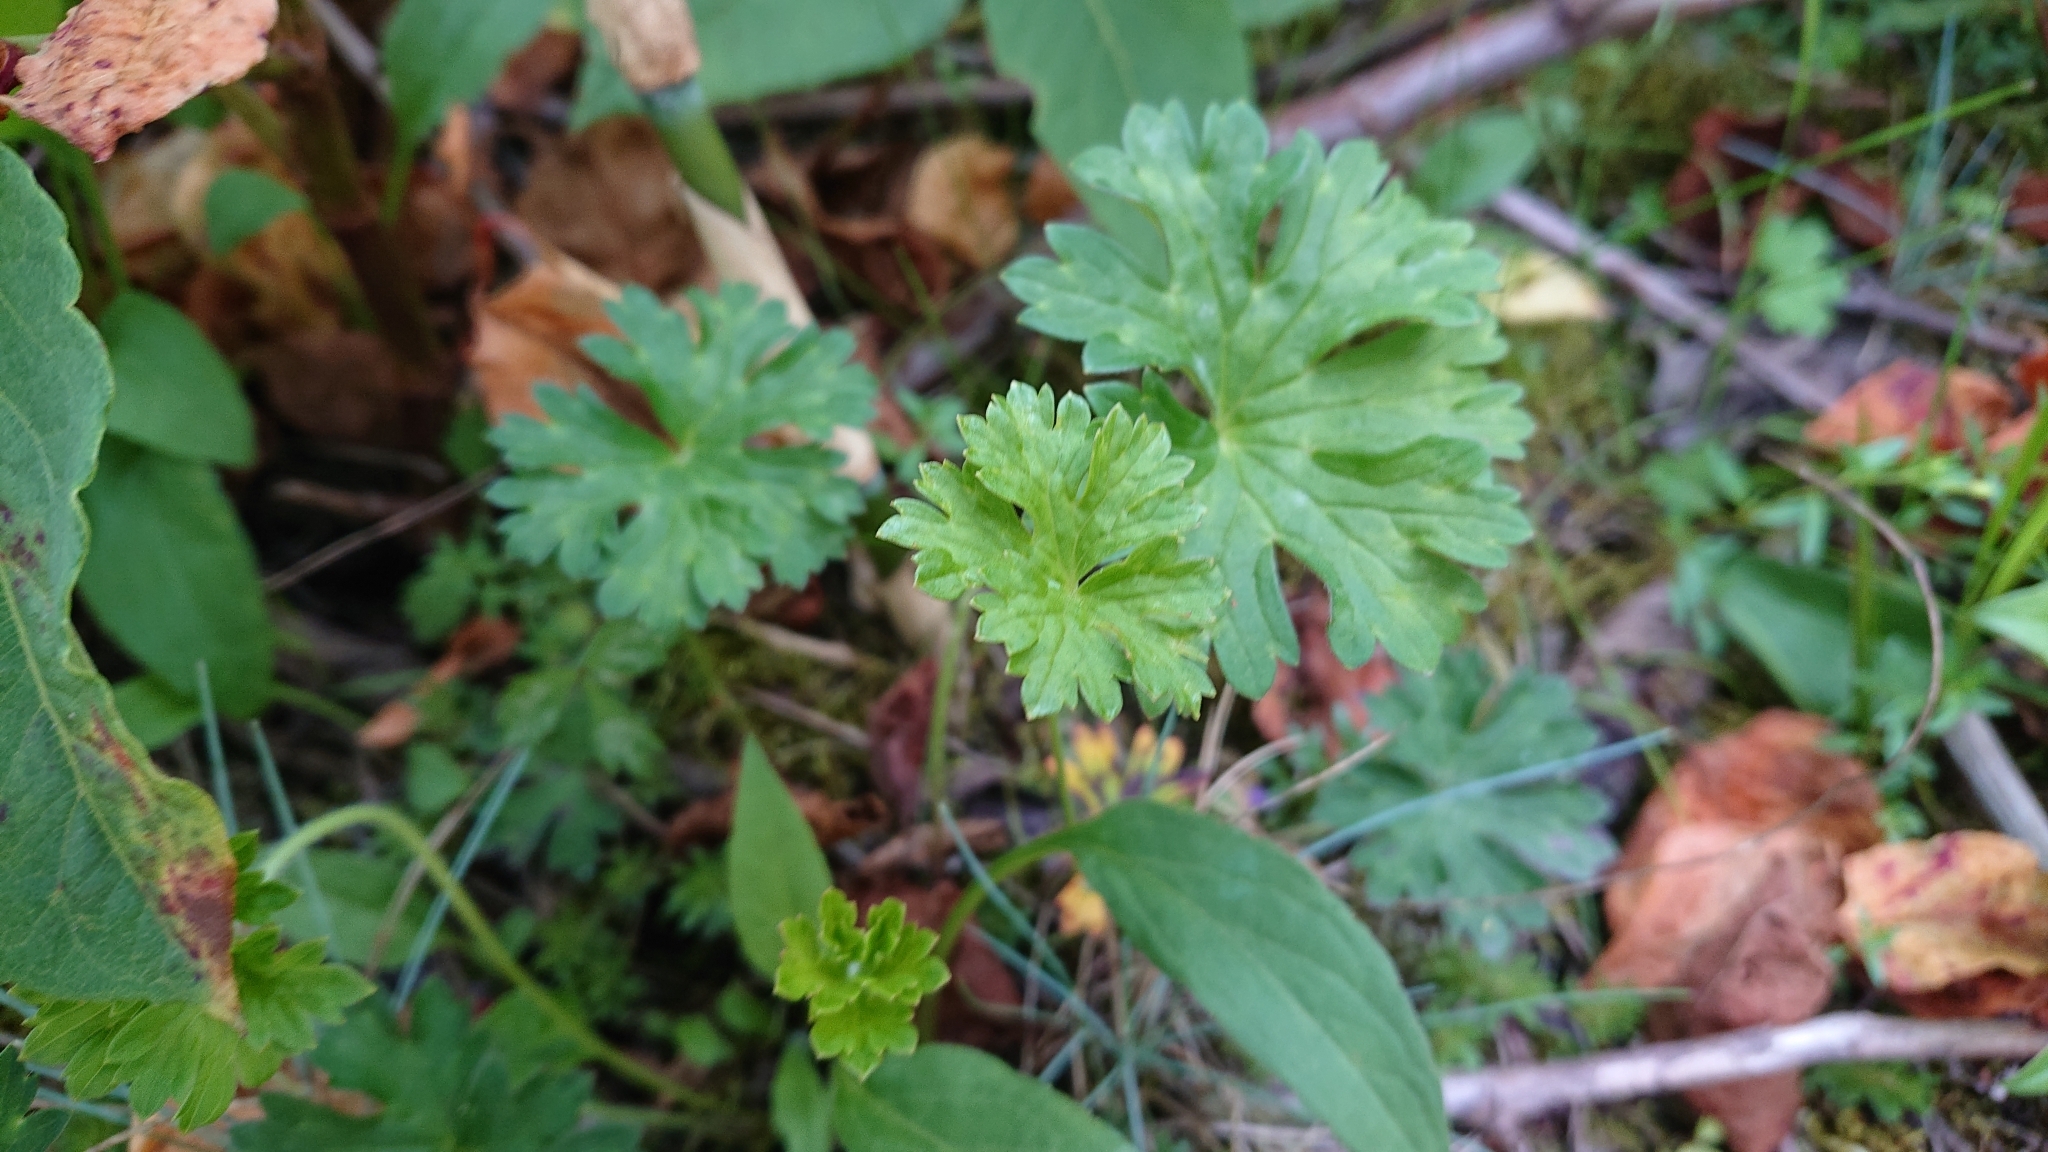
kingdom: Plantae
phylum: Tracheophyta
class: Magnoliopsida
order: Geraniales
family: Geraniaceae
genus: Geranium
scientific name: Geranium hayatanum
